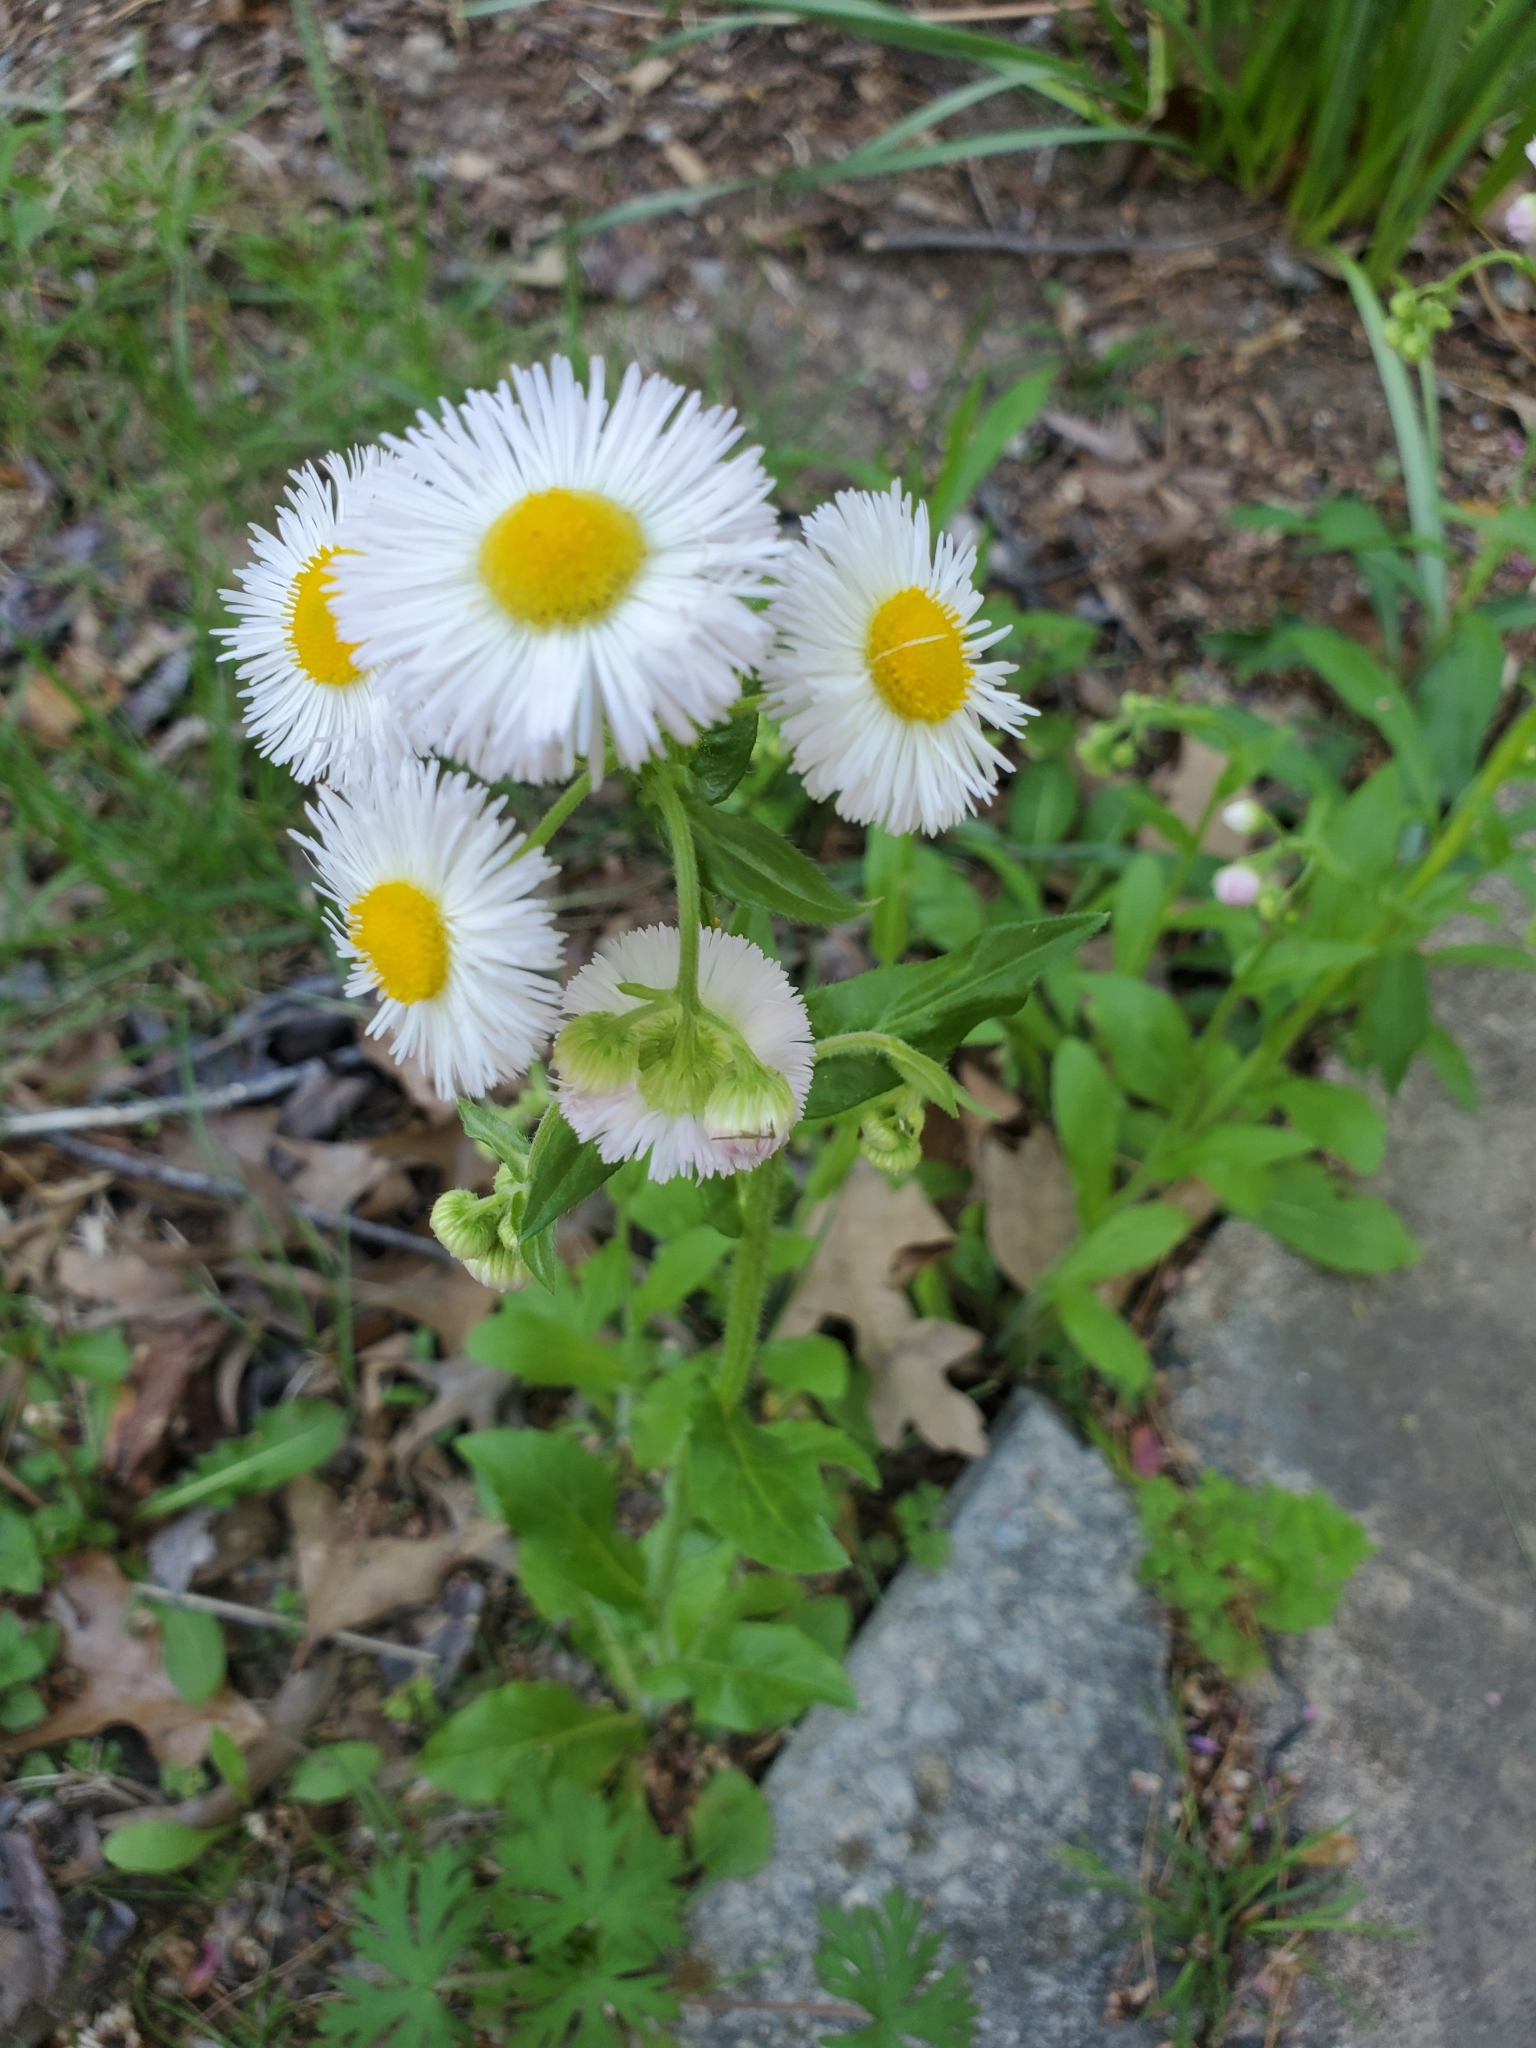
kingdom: Plantae
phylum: Tracheophyta
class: Magnoliopsida
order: Asterales
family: Asteraceae
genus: Erigeron
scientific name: Erigeron philadelphicus
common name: Robin's-plantain
